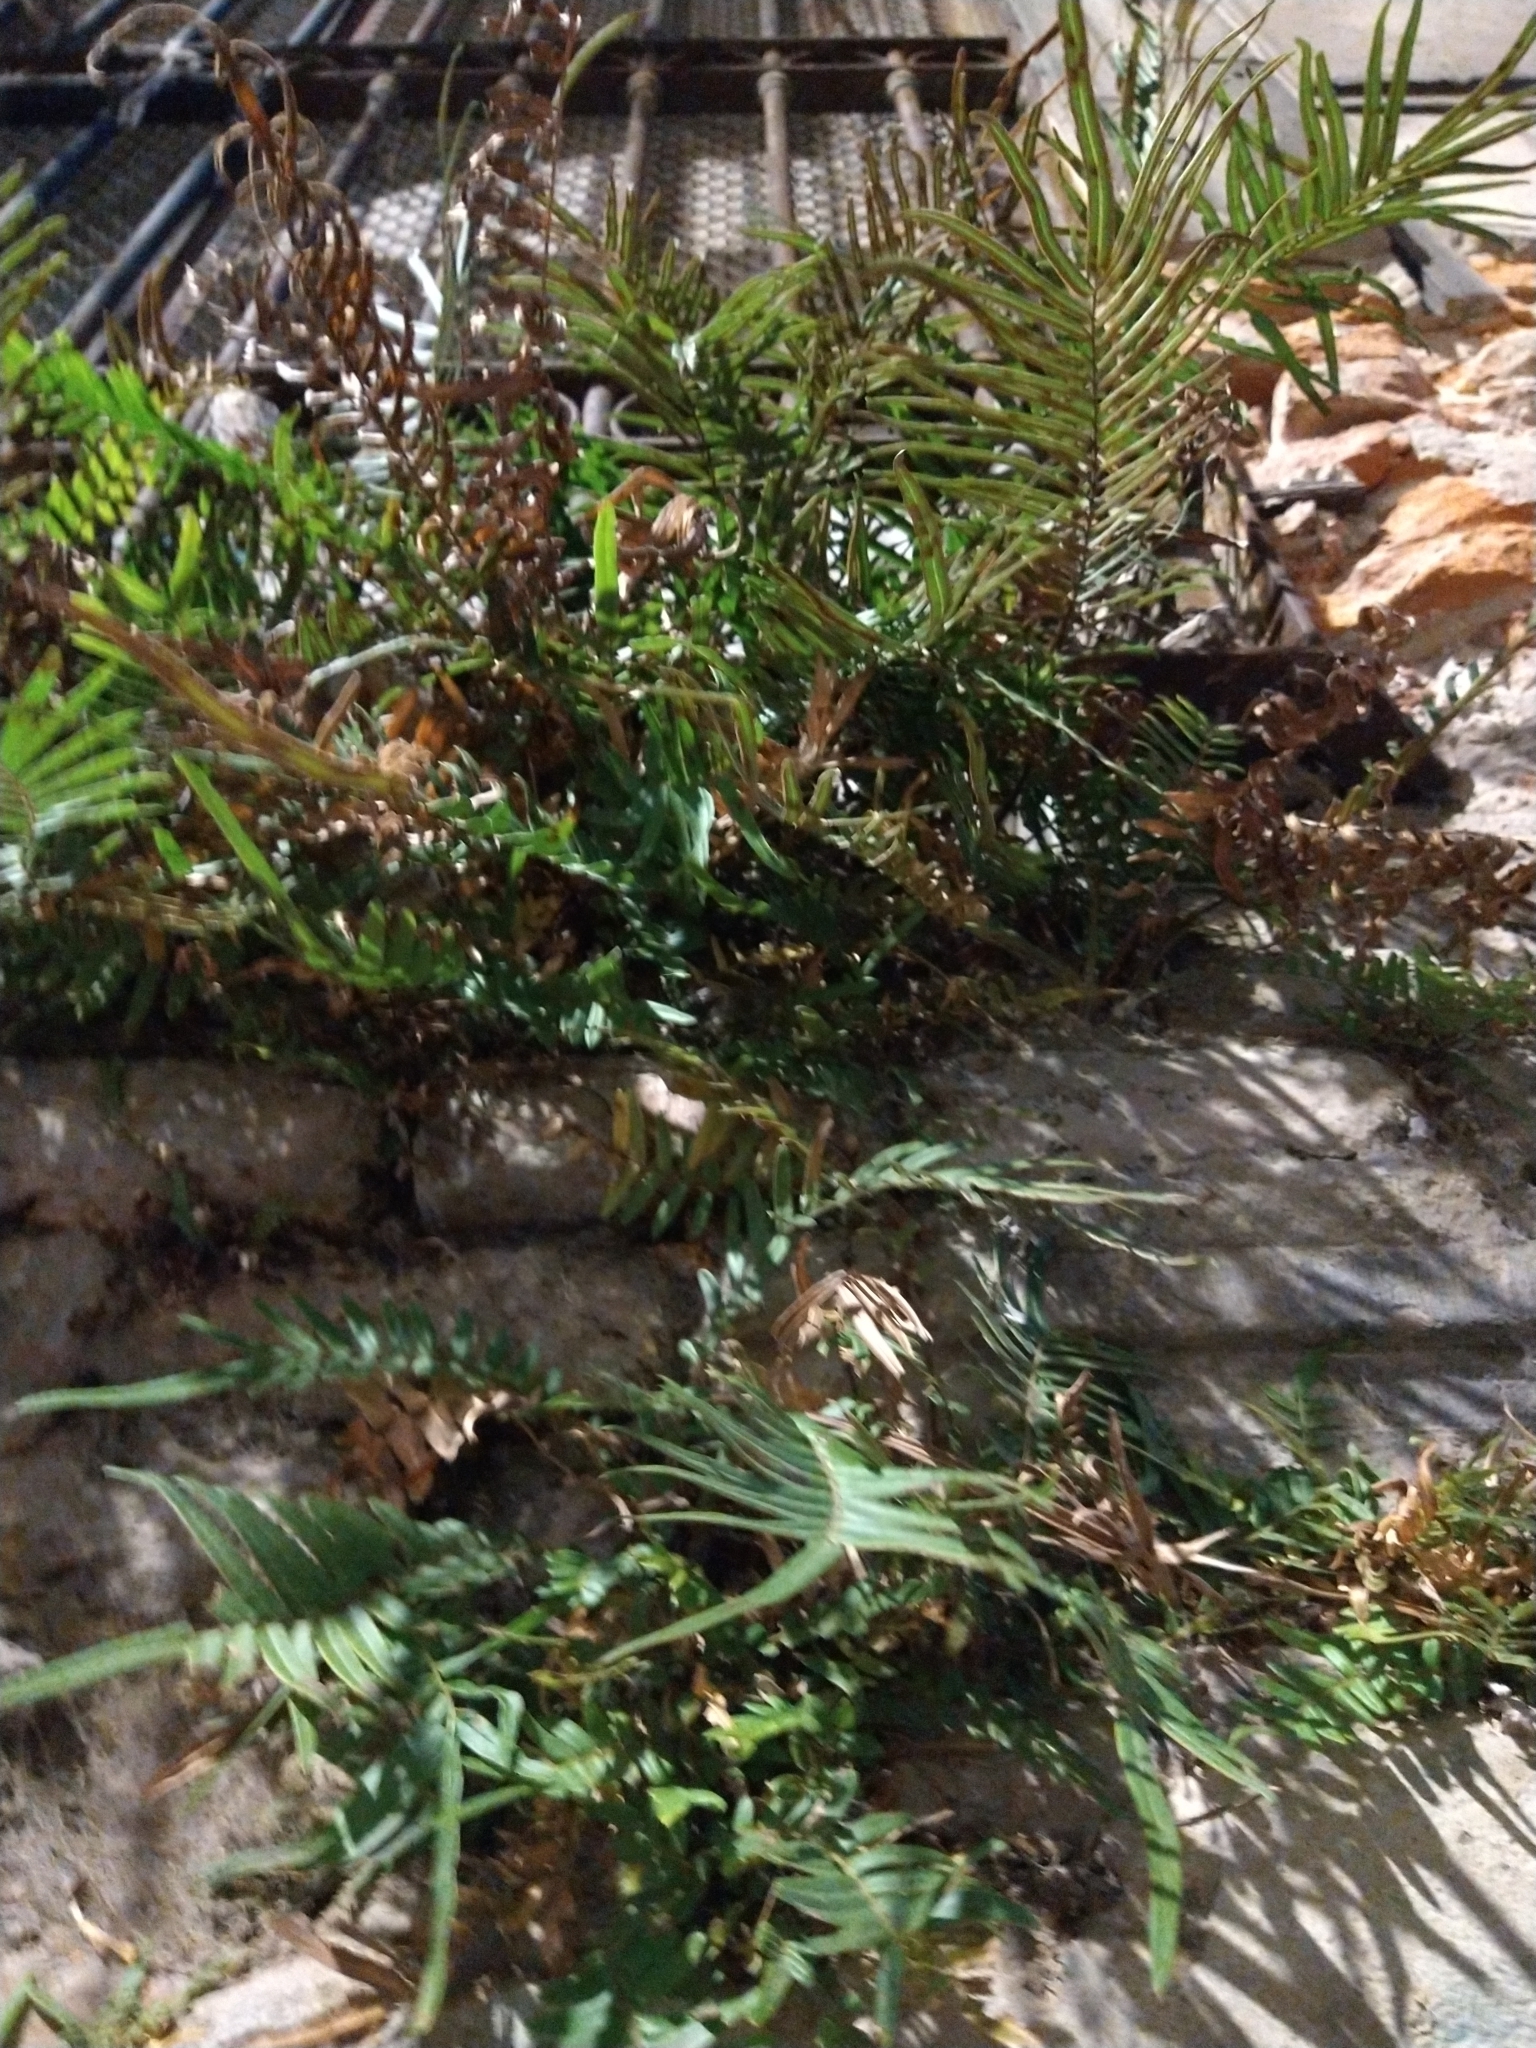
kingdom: Plantae
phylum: Tracheophyta
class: Polypodiopsida
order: Polypodiales
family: Pteridaceae
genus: Pteris
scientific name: Pteris vittata
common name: Ladder brake
